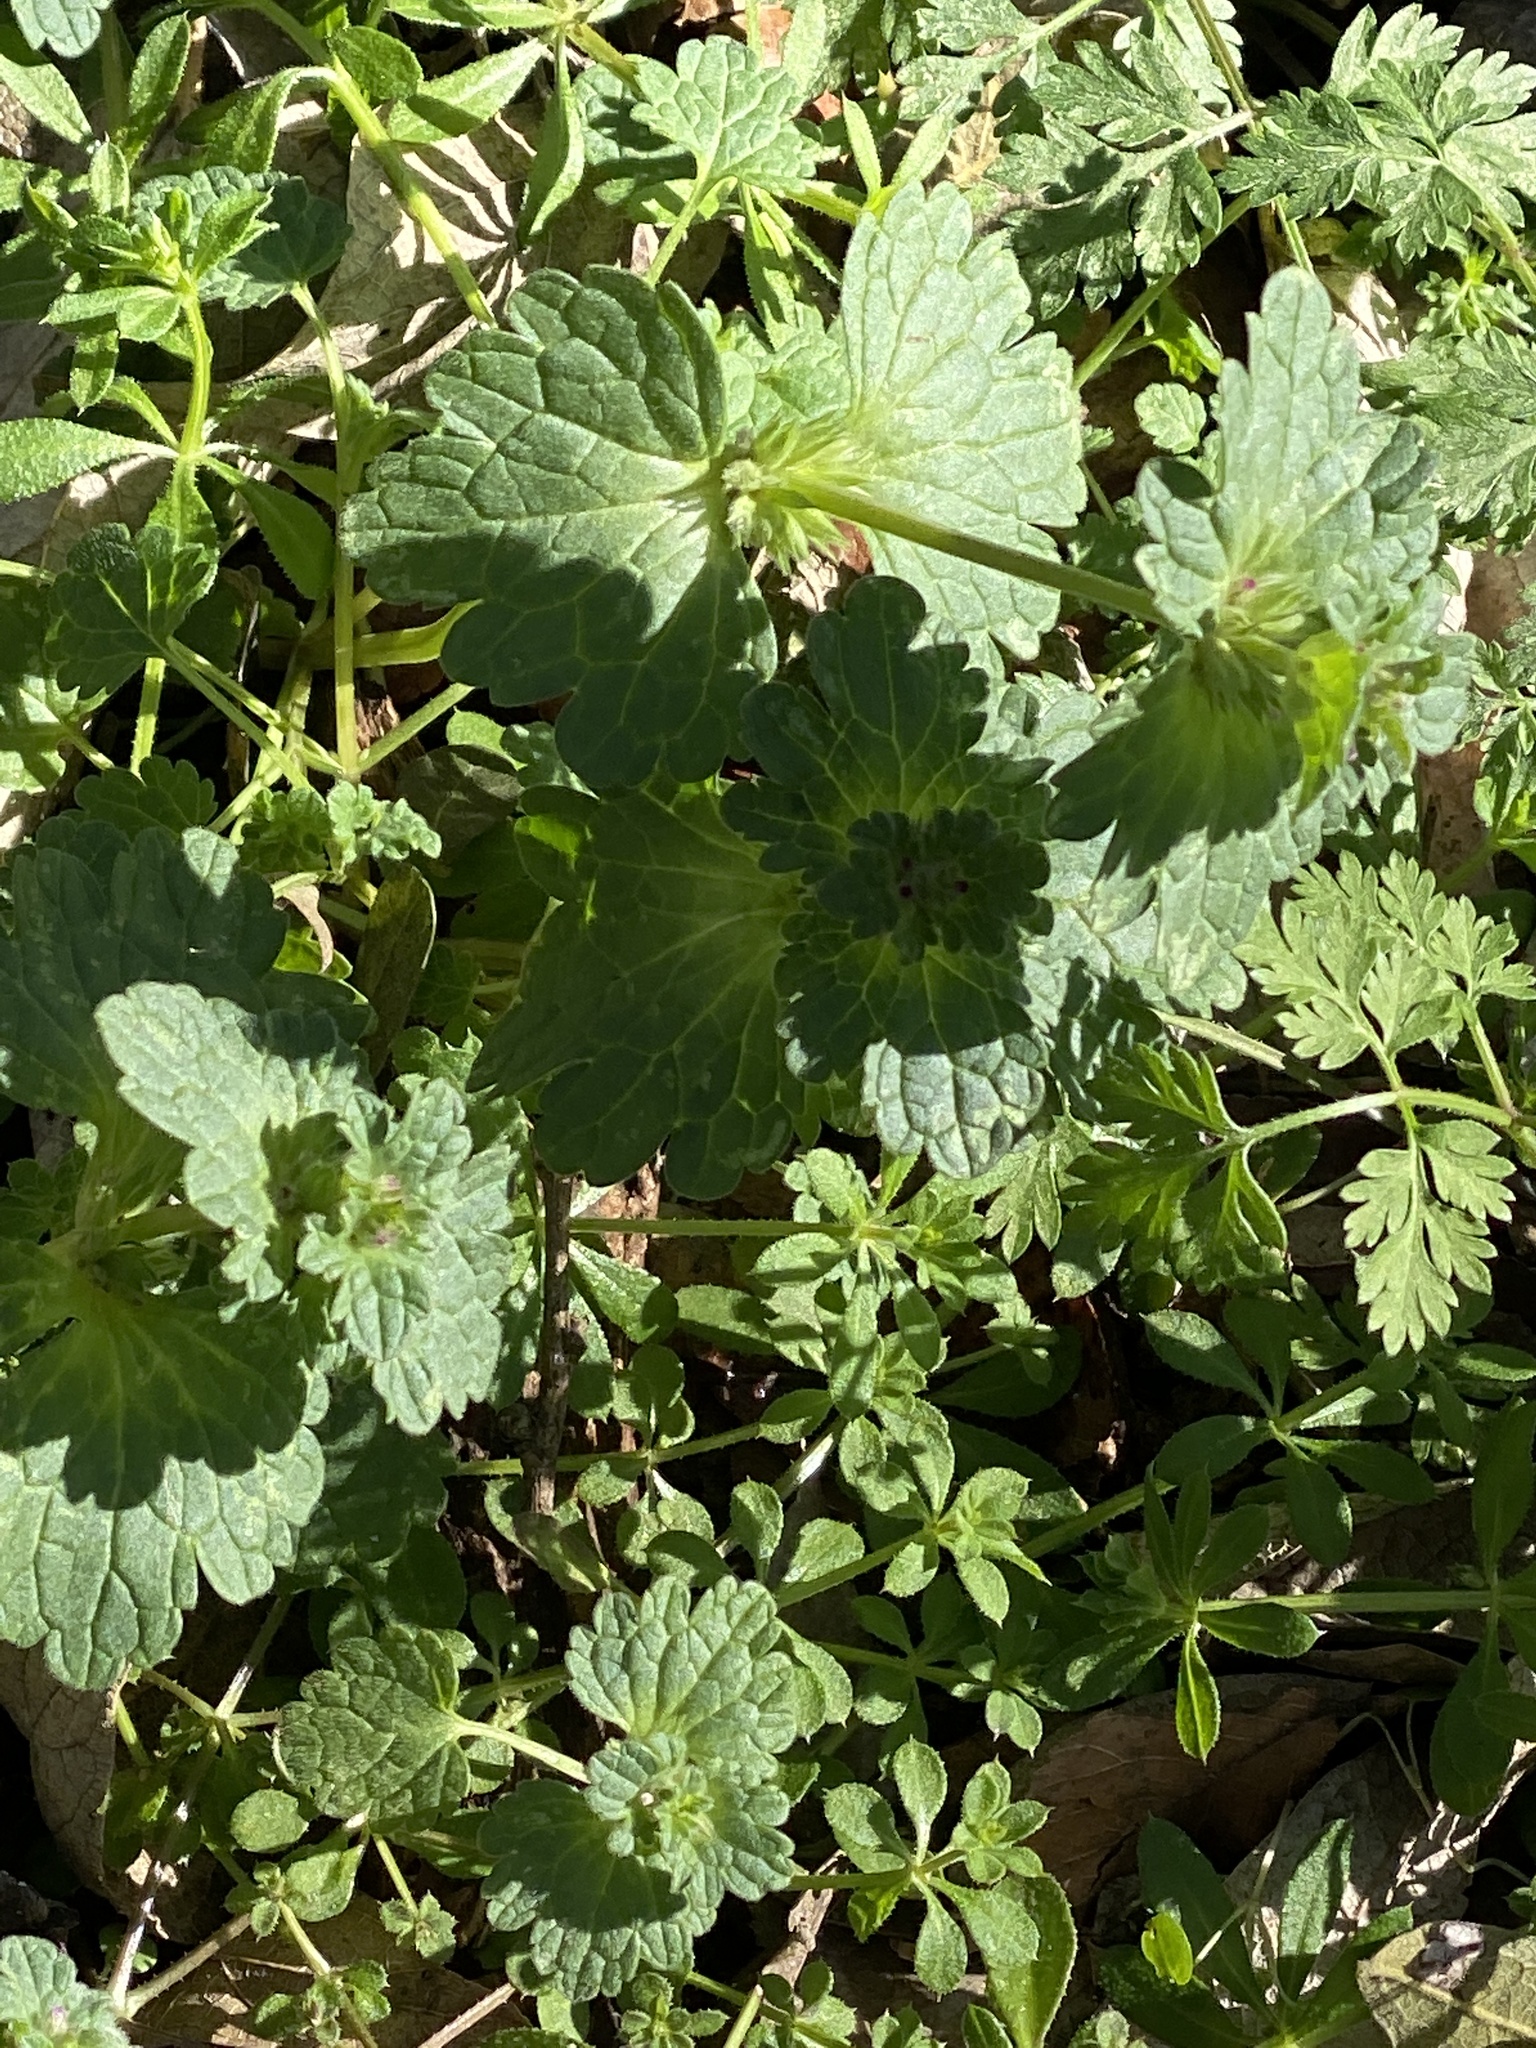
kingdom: Plantae
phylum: Tracheophyta
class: Magnoliopsida
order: Lamiales
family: Lamiaceae
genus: Lamium
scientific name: Lamium amplexicaule
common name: Henbit dead-nettle
